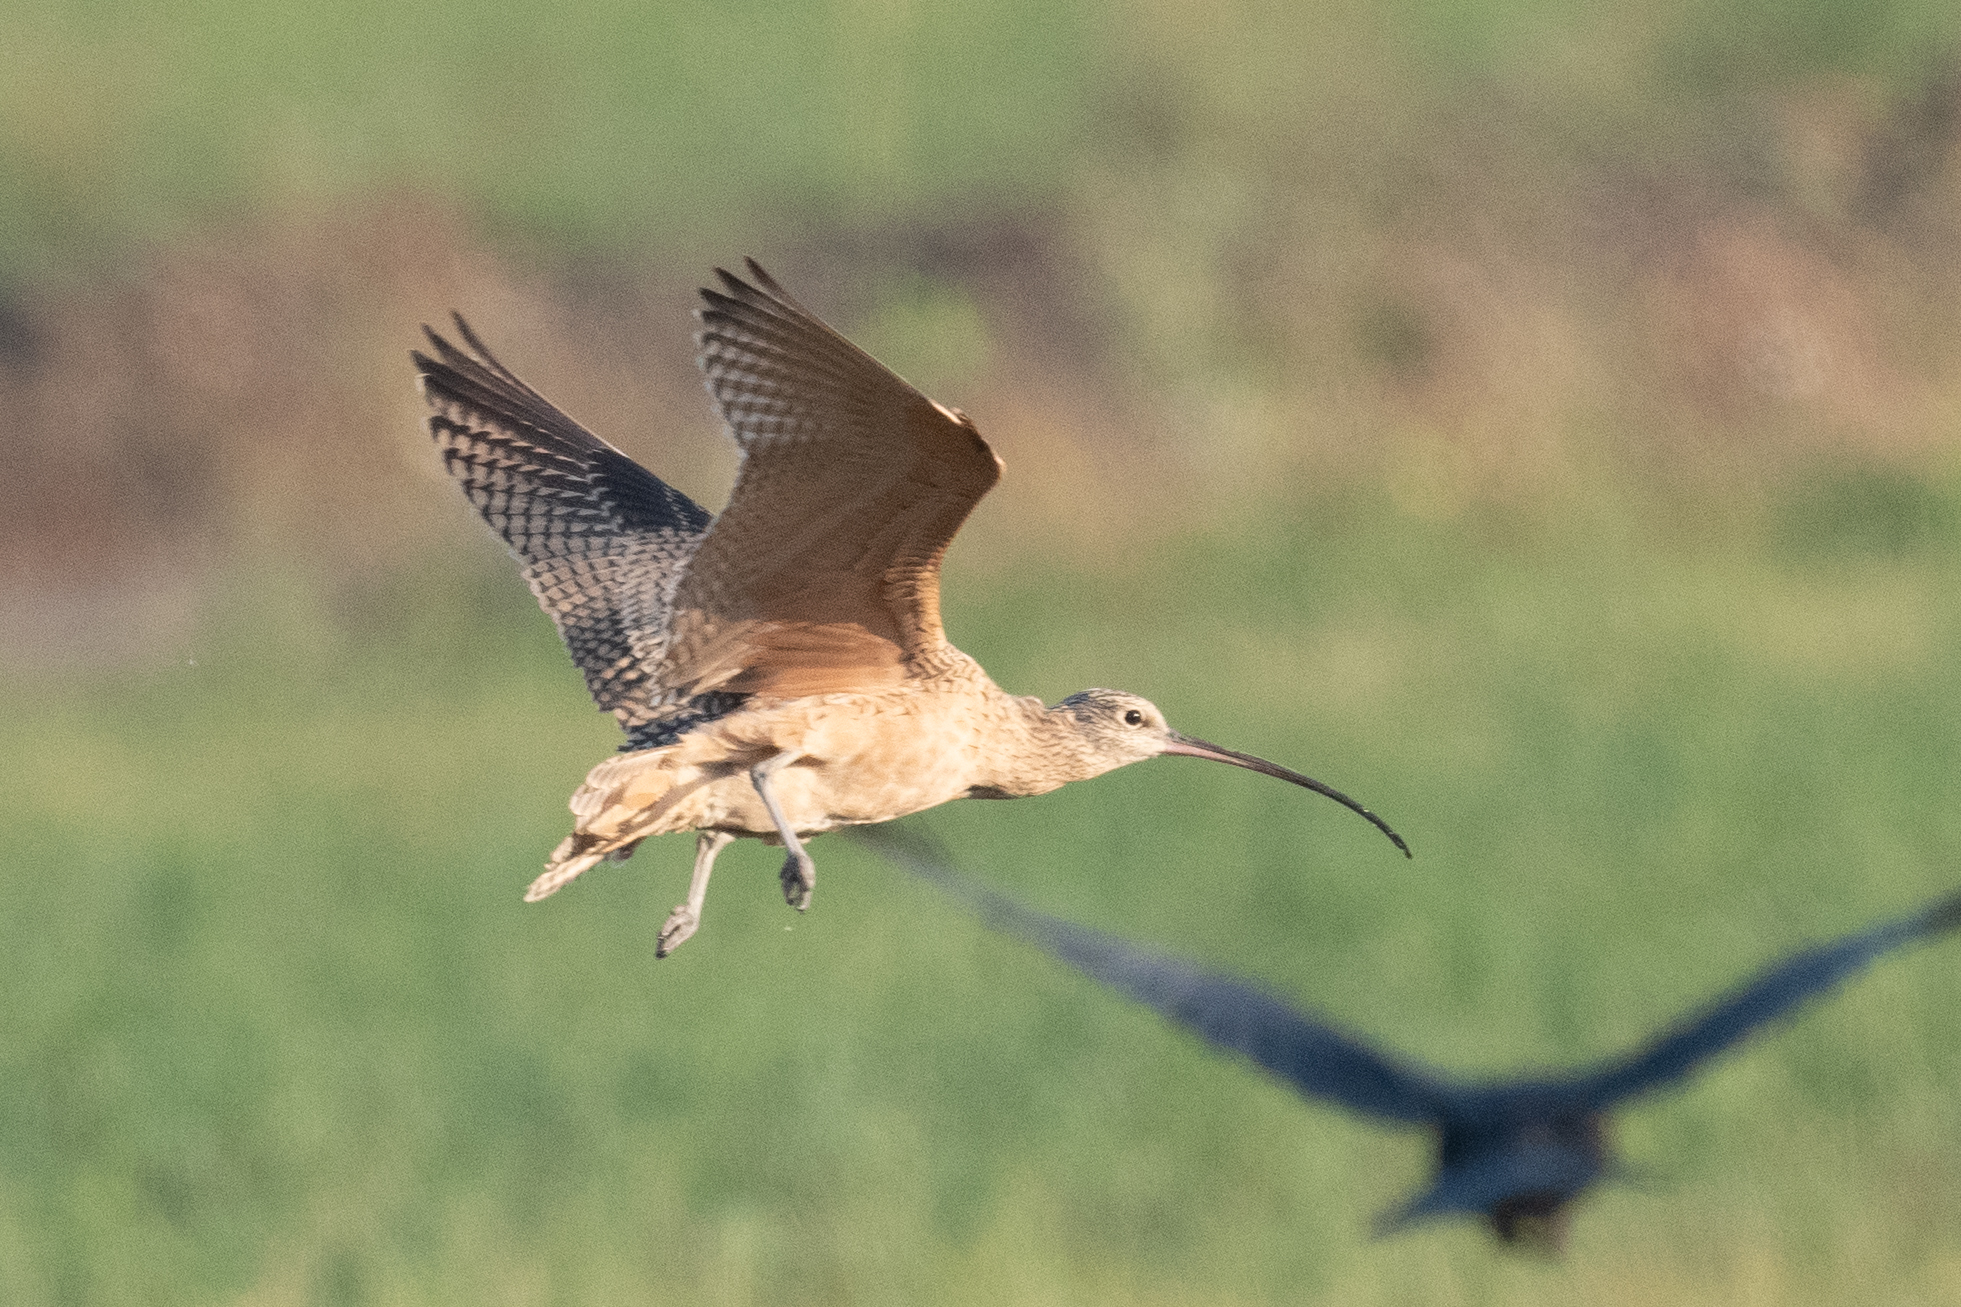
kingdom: Animalia
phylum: Chordata
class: Aves
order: Charadriiformes
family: Scolopacidae
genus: Numenius
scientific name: Numenius americanus
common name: Long-billed curlew
